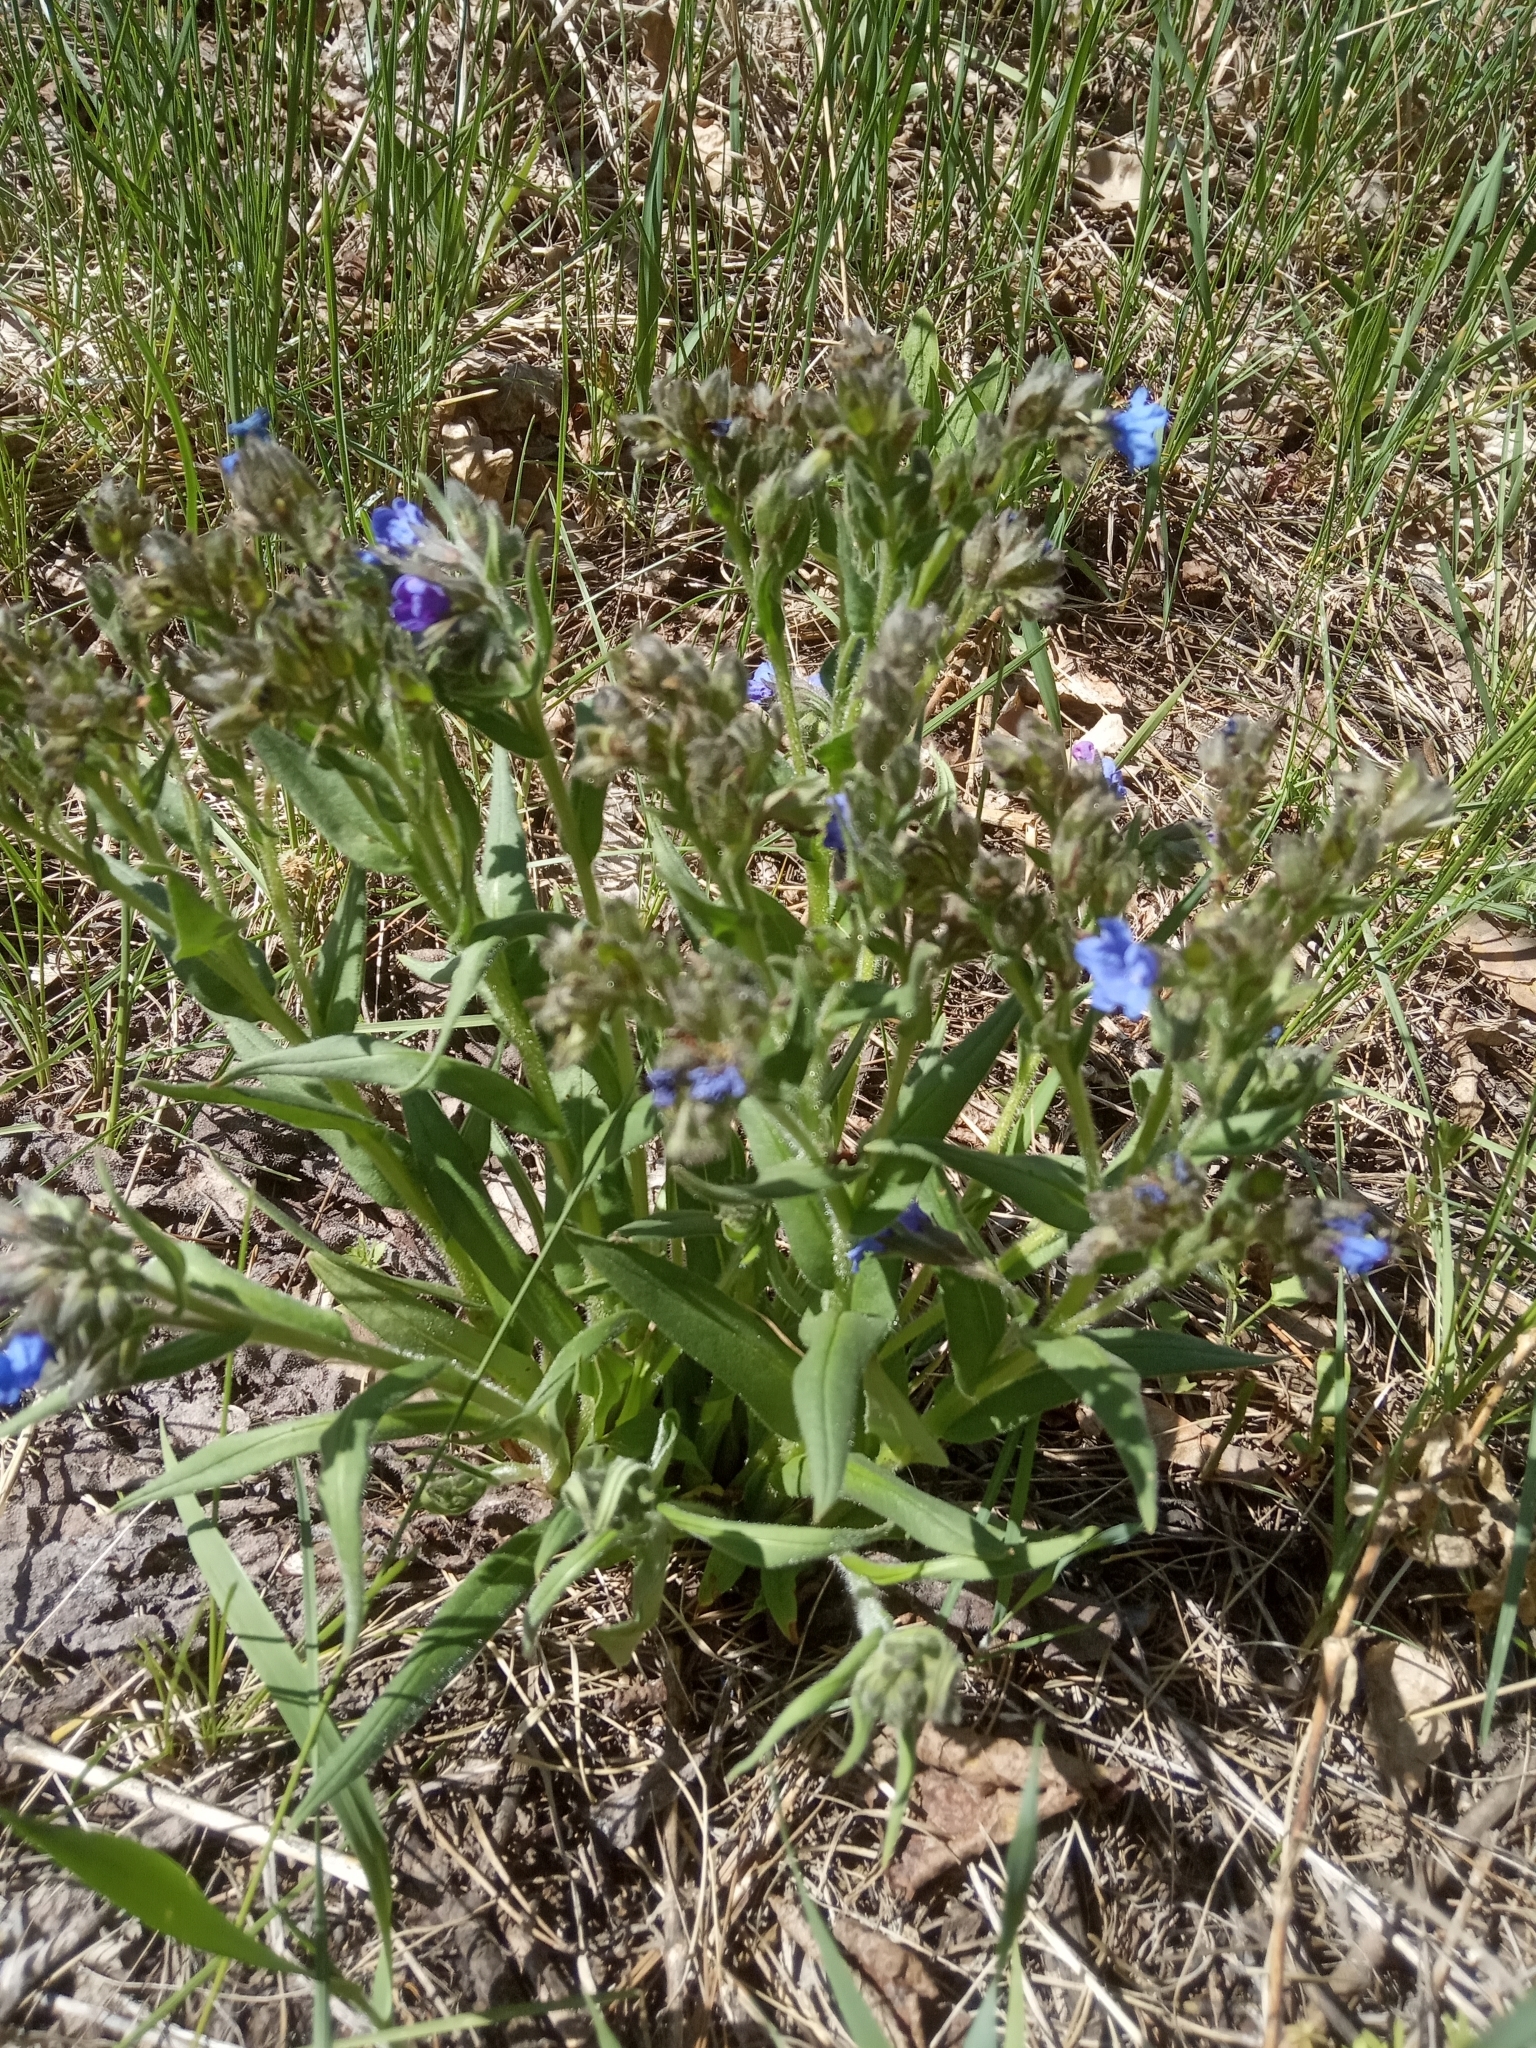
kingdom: Plantae
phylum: Tracheophyta
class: Magnoliopsida
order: Boraginales
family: Boraginaceae
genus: Pulmonaria
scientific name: Pulmonaria angustifolia
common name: Blue cowslip
